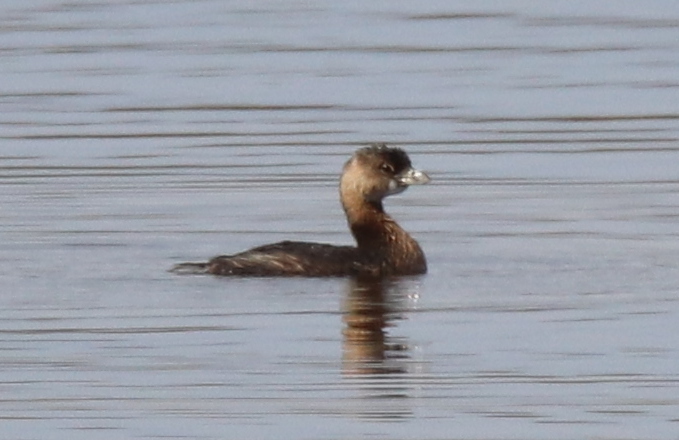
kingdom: Animalia
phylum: Chordata
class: Aves
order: Podicipediformes
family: Podicipedidae
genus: Podilymbus
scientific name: Podilymbus podiceps
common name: Pied-billed grebe
